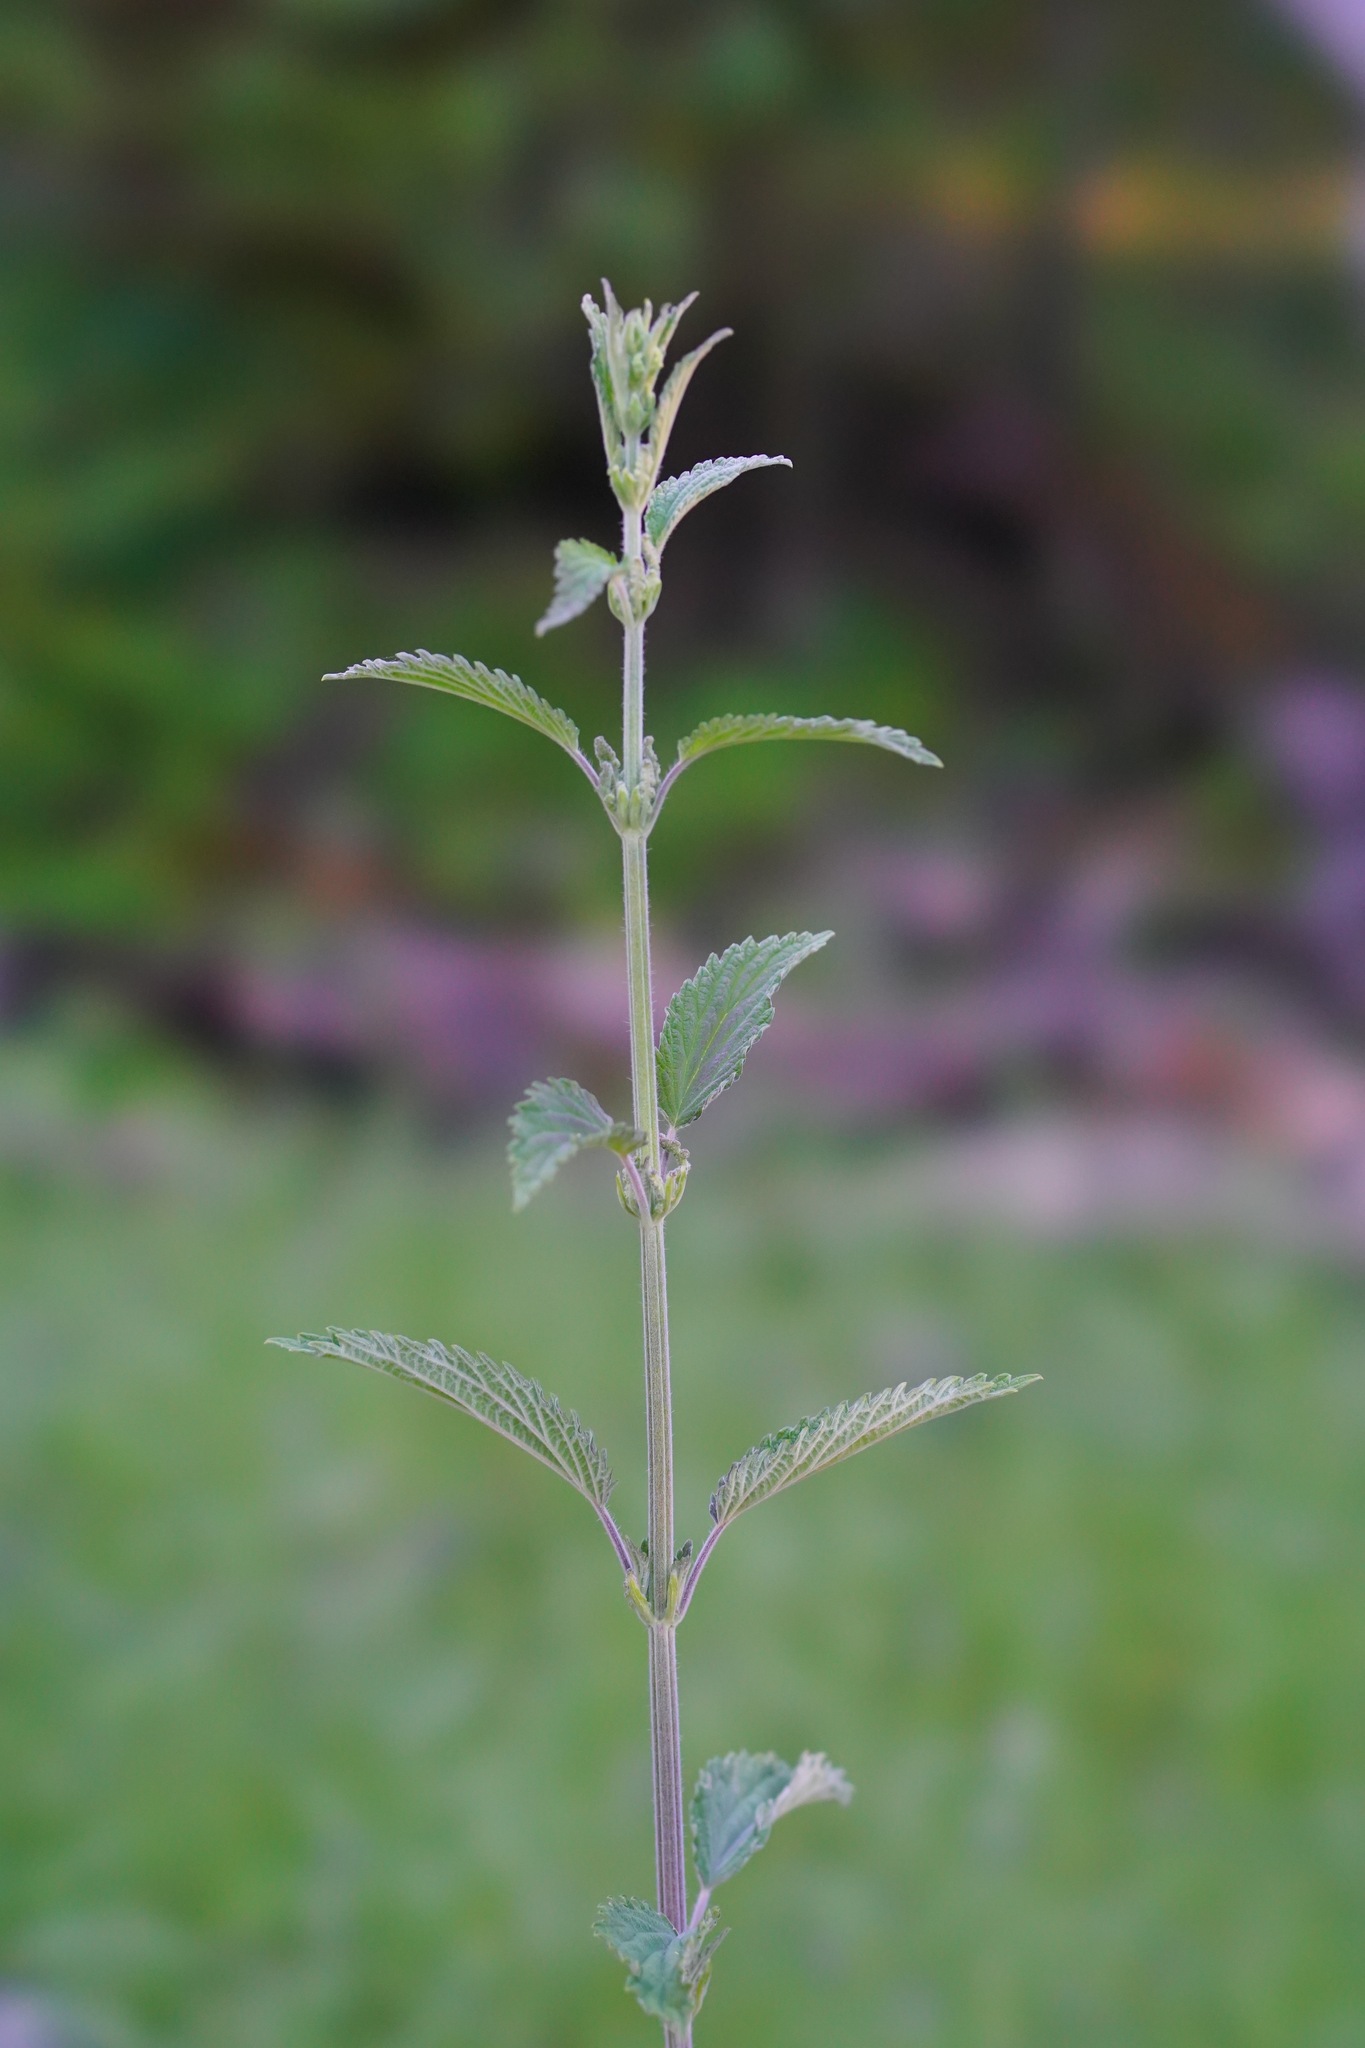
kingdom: Plantae
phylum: Tracheophyta
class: Magnoliopsida
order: Rosales
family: Urticaceae
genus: Urtica
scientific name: Urtica dioica
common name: Common nettle
